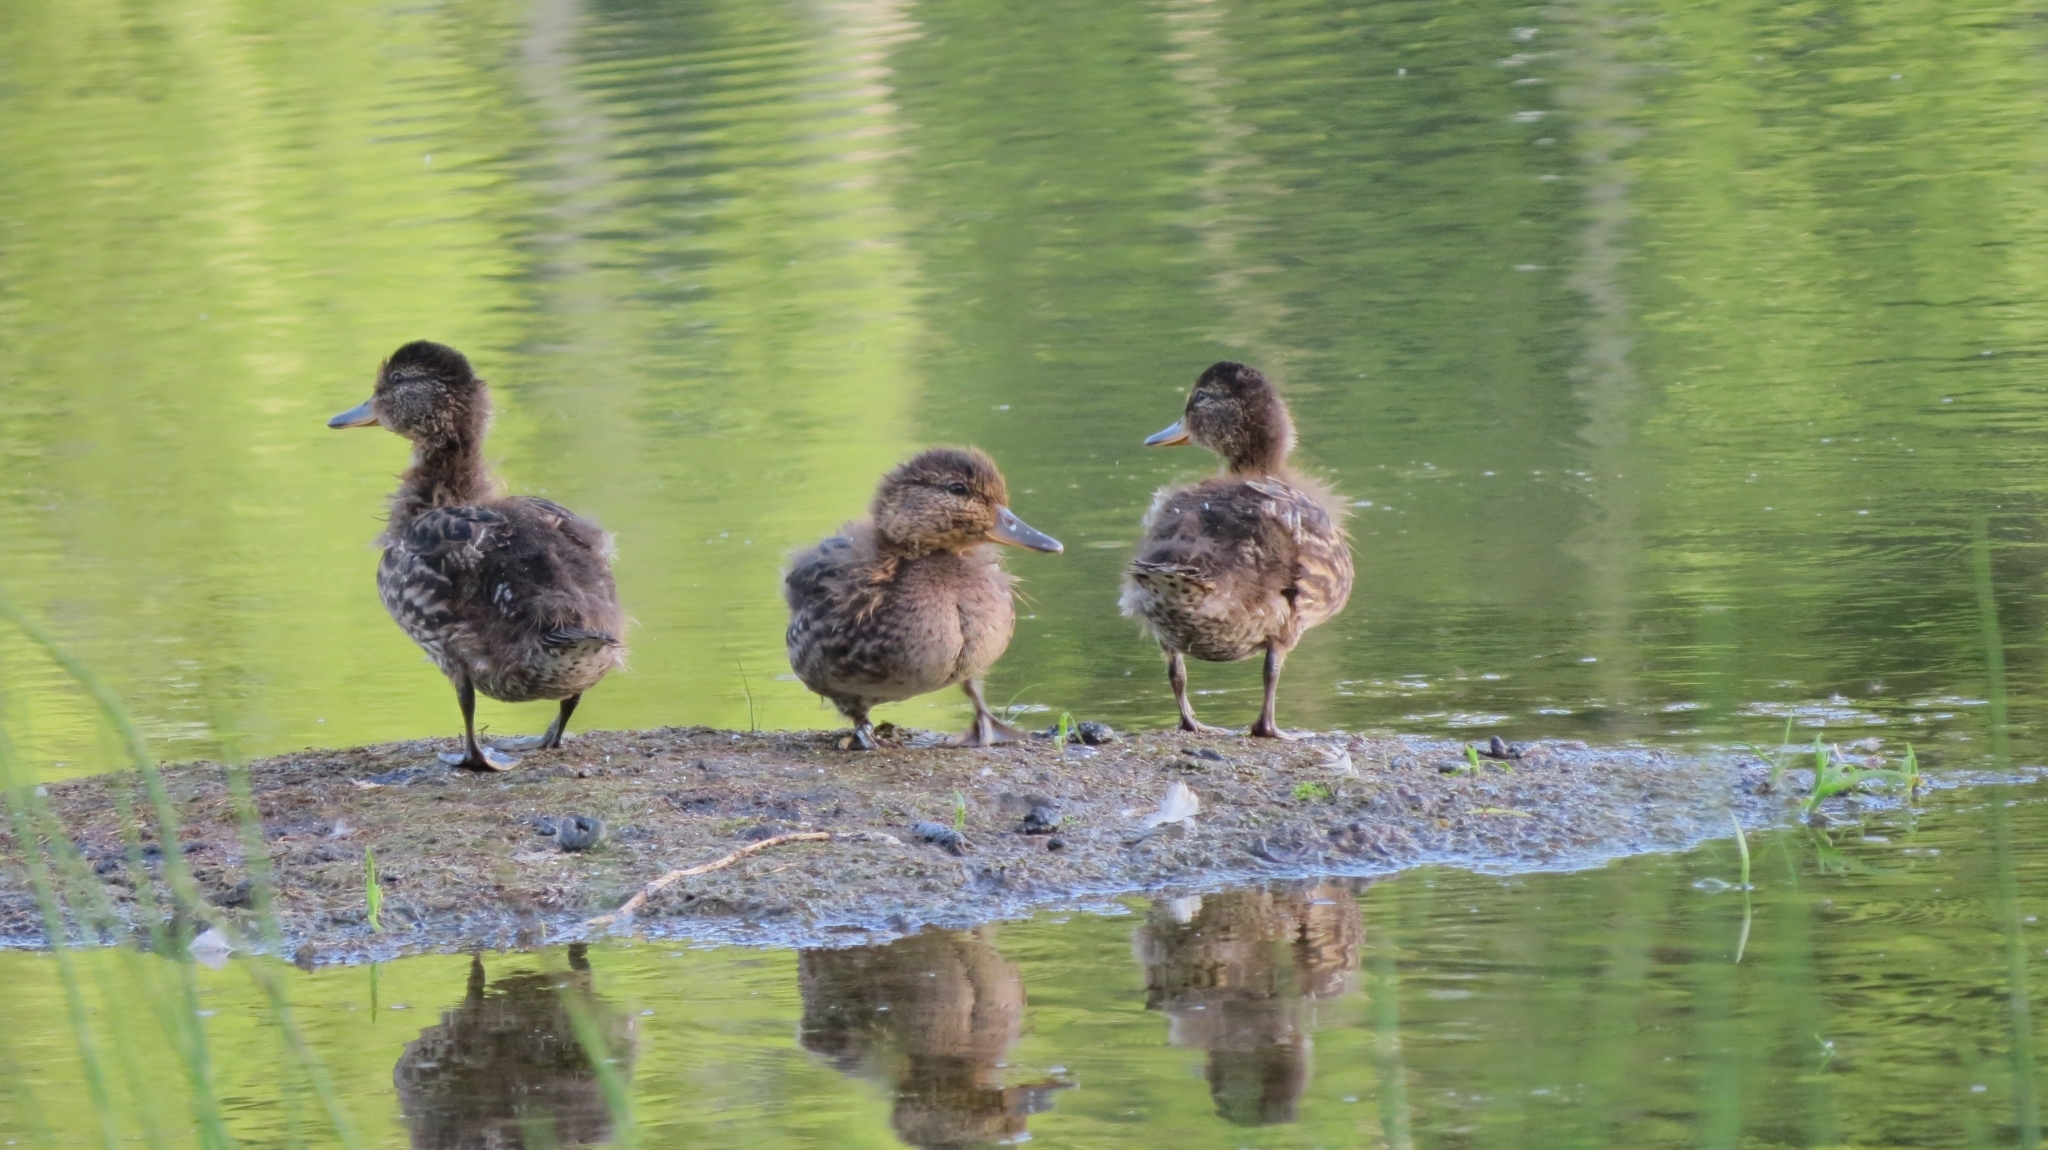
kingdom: Animalia
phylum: Chordata
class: Aves
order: Anseriformes
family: Anatidae
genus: Anas
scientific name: Anas crecca
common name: Eurasian teal
